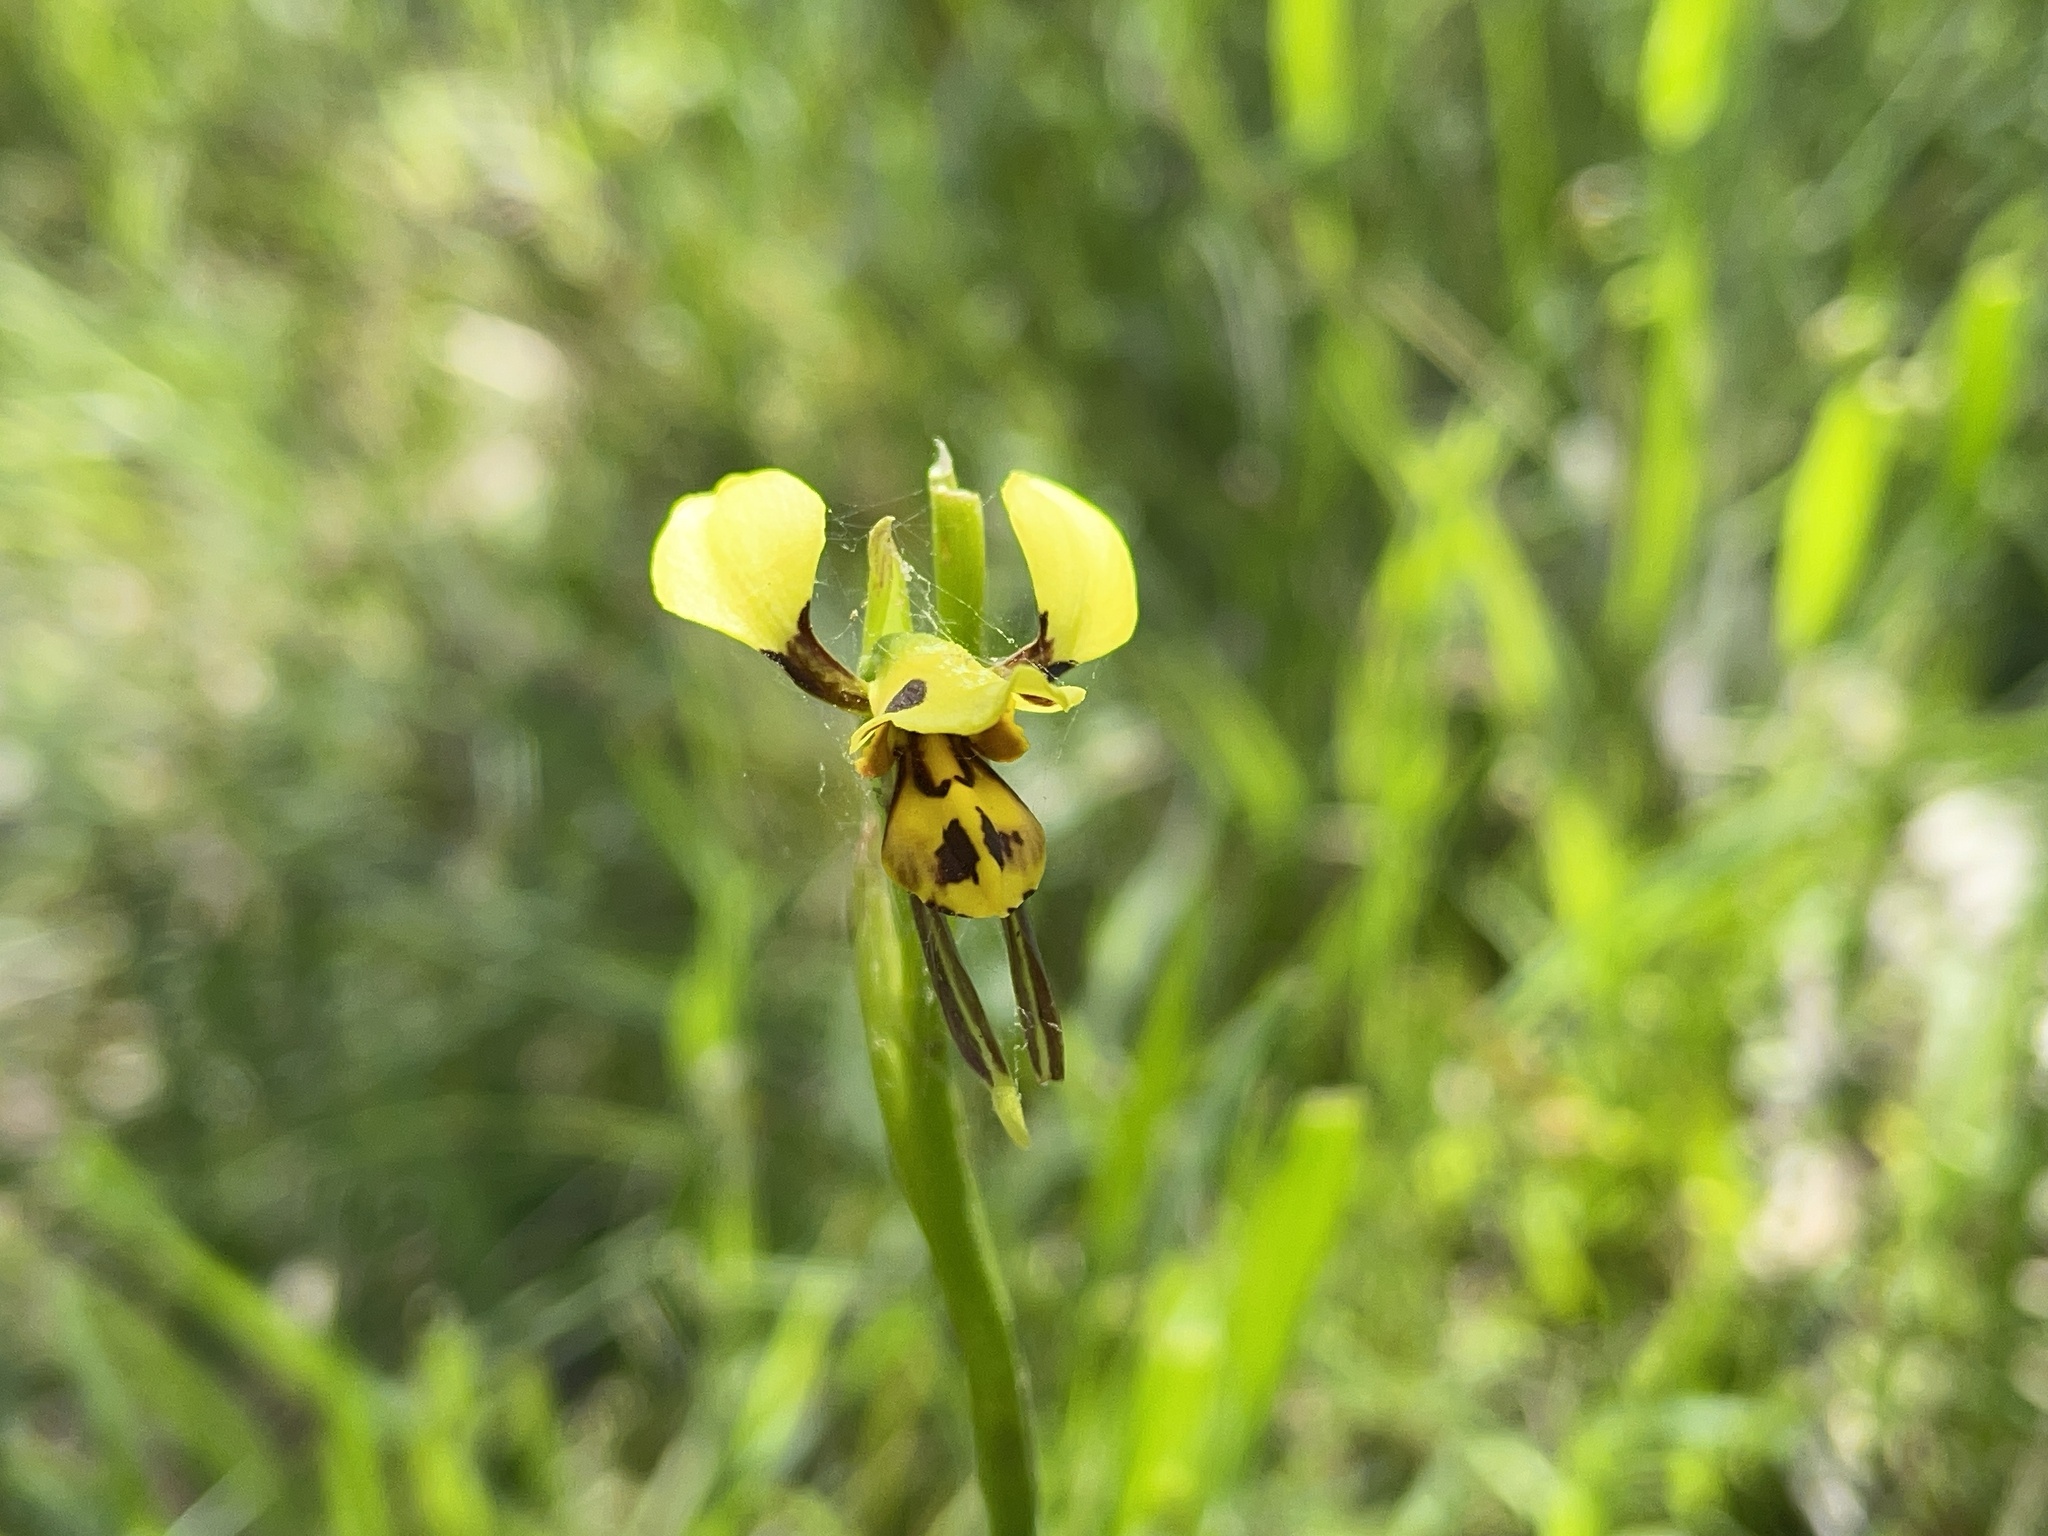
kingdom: Plantae
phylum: Tracheophyta
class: Liliopsida
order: Asparagales
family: Orchidaceae
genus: Diuris
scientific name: Diuris sulphurea
